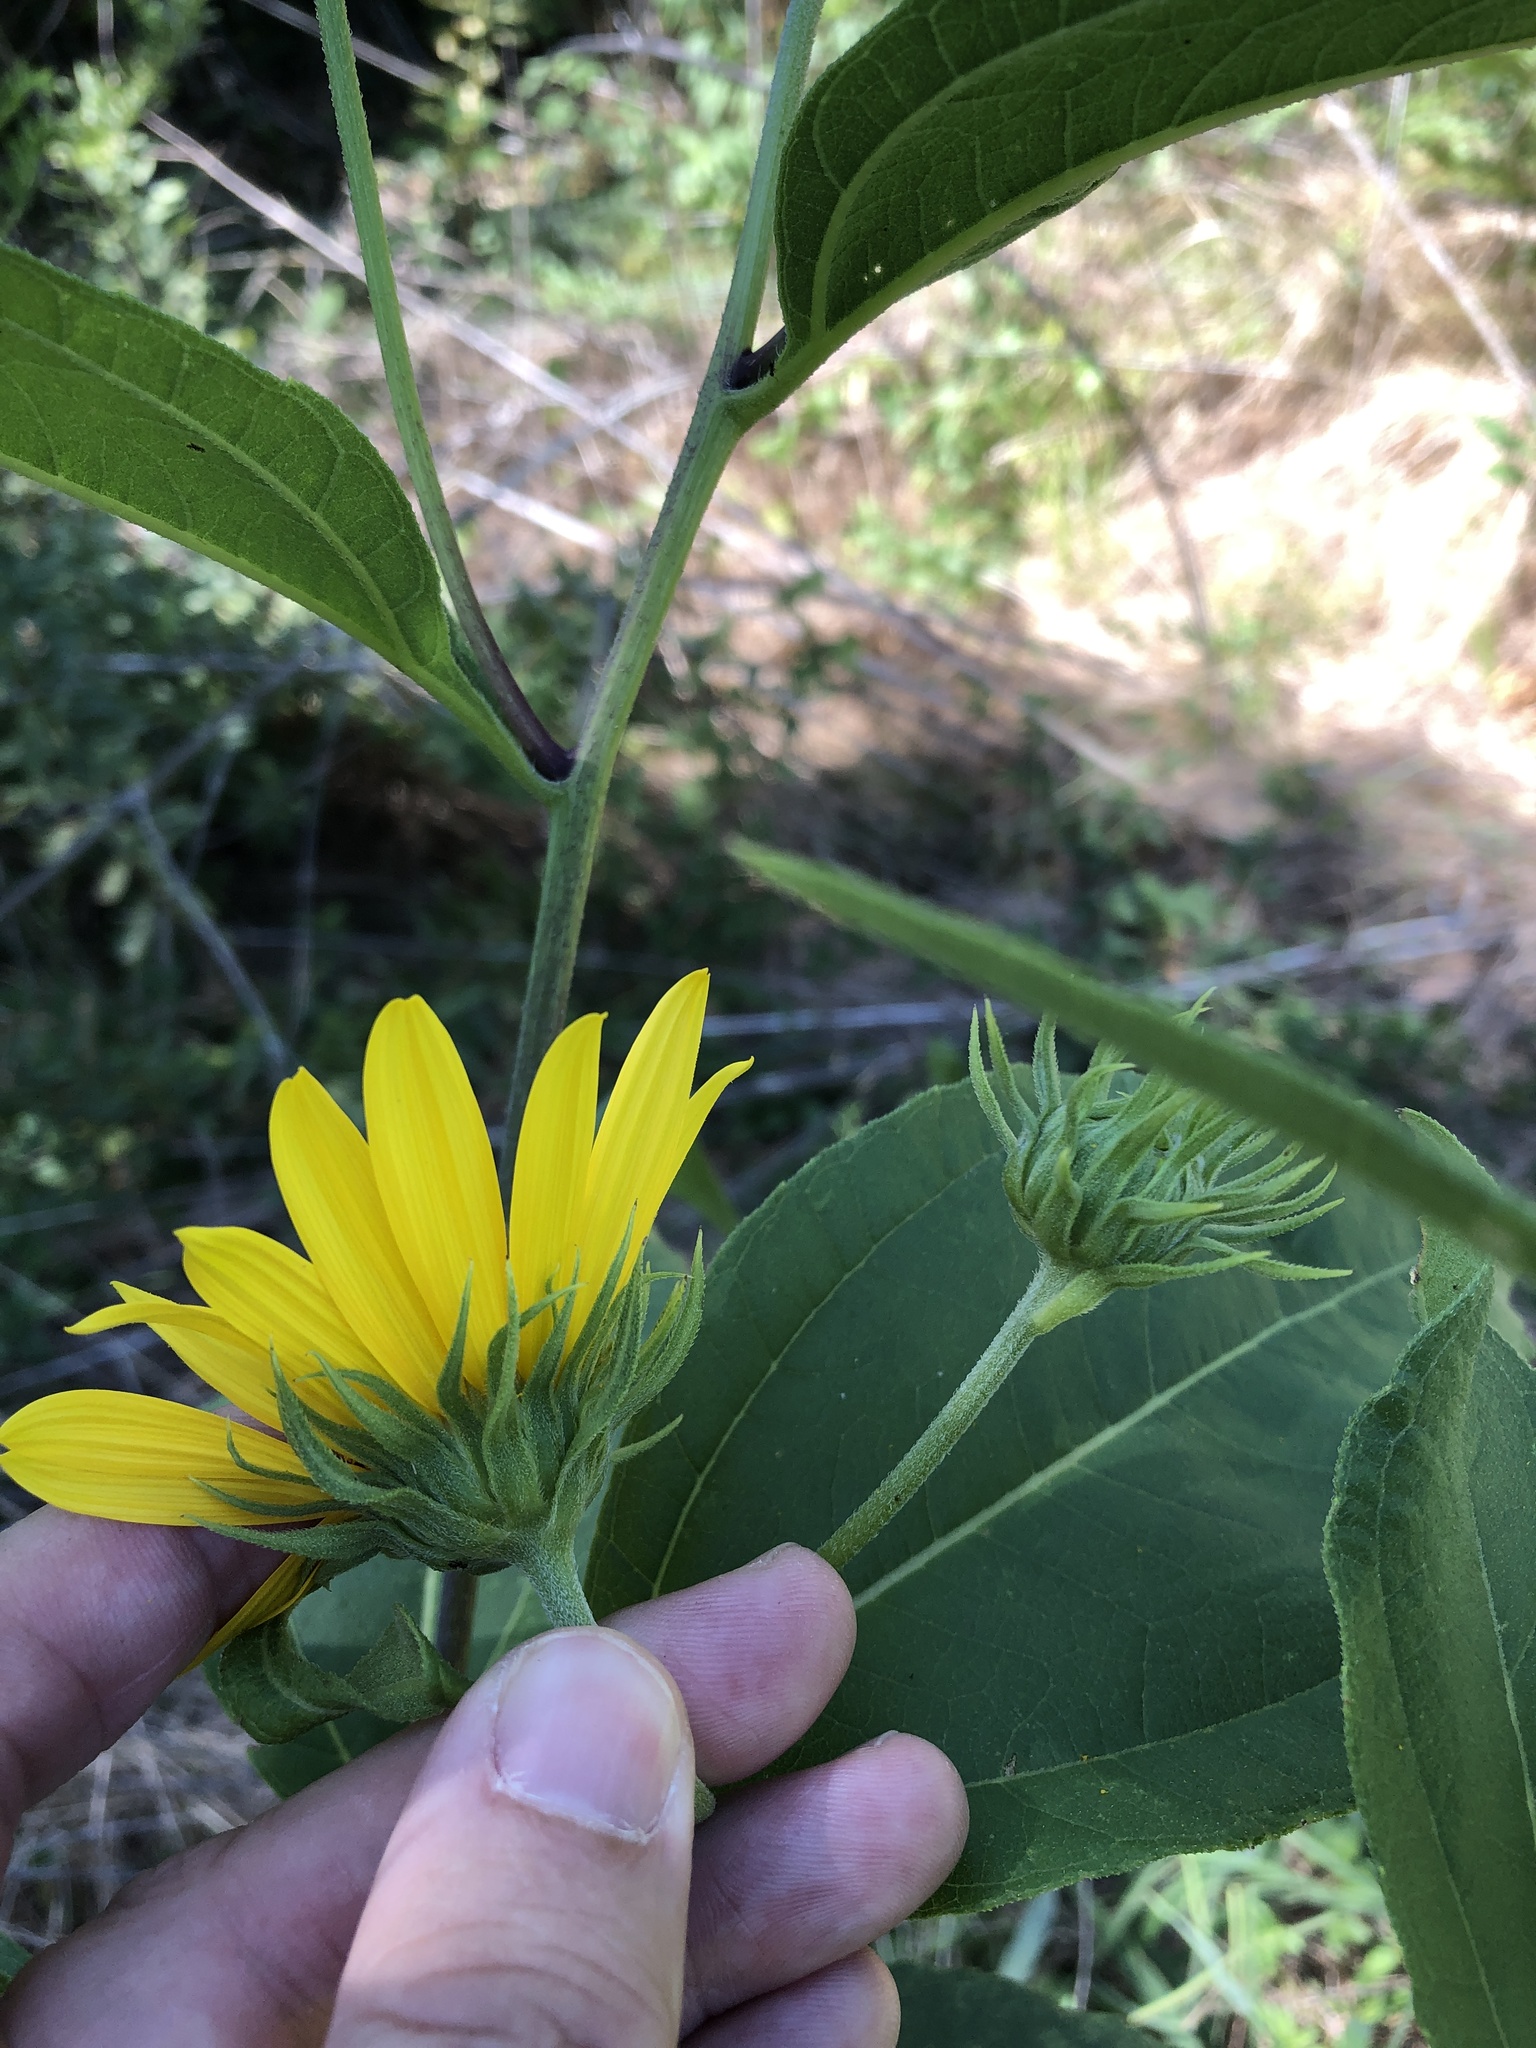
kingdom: Plantae
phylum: Tracheophyta
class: Magnoliopsida
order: Asterales
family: Asteraceae
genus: Helianthus
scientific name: Helianthus hirsutus
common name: Hairy sunflower
